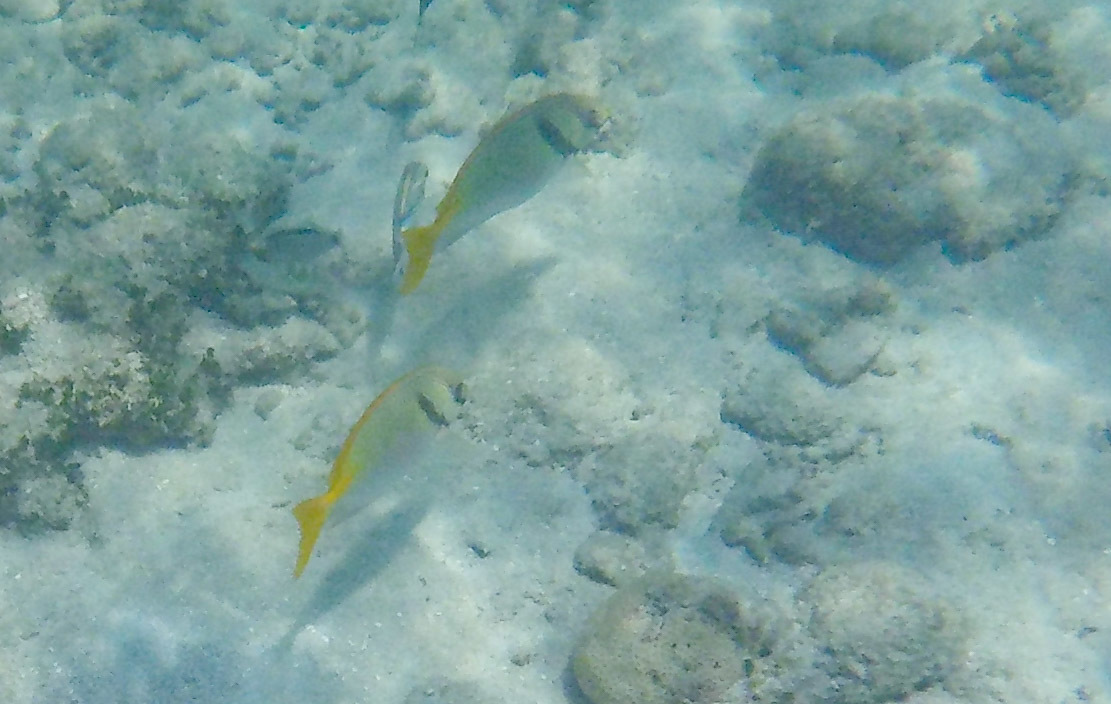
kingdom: Animalia
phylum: Chordata
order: Perciformes
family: Siganidae
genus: Siganus
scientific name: Siganus doliatus
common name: Barred spinefoot
